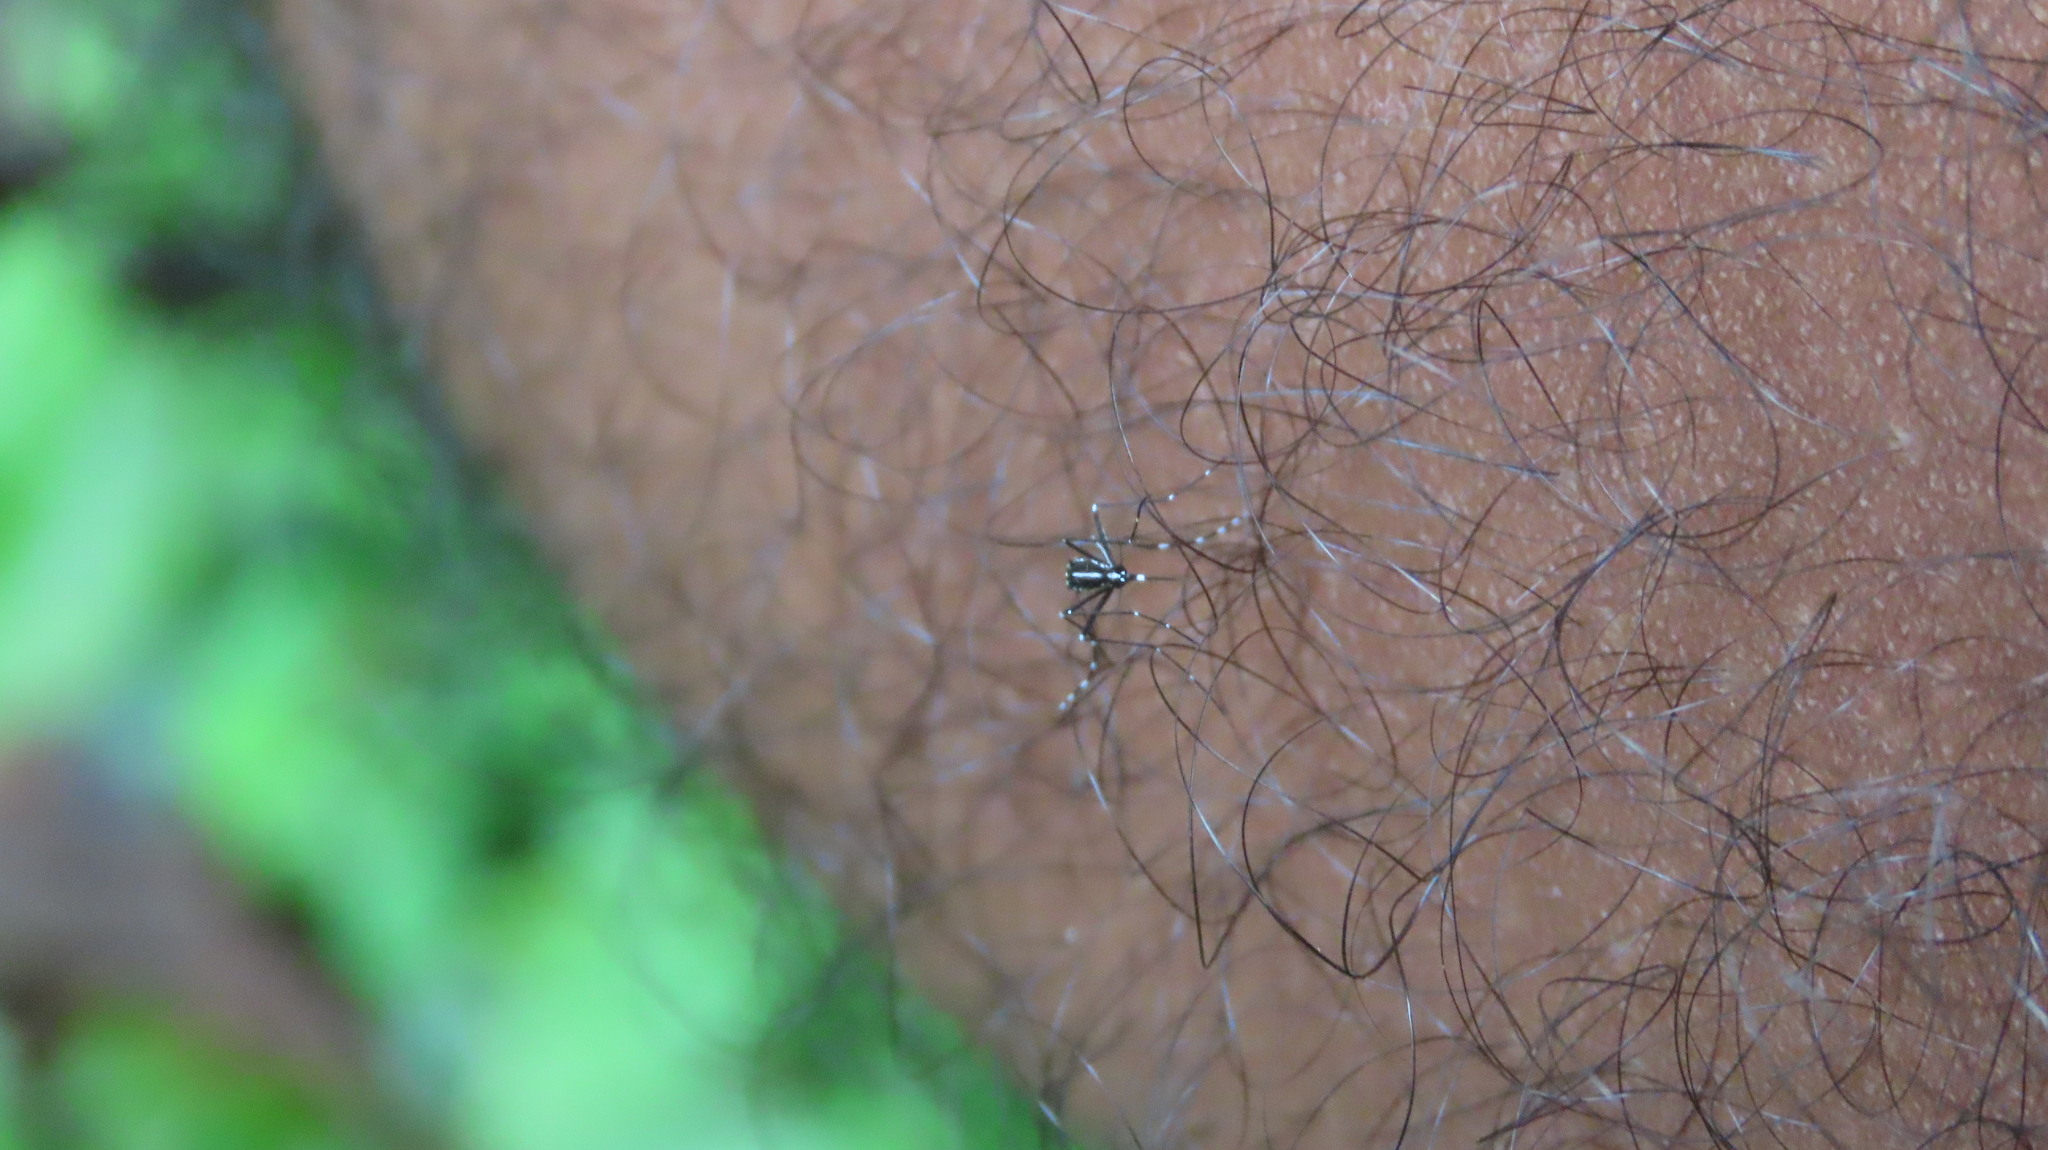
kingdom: Animalia
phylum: Arthropoda
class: Insecta
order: Diptera
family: Culicidae
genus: Aedes
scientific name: Aedes albopictus
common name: Tiger mosquito
